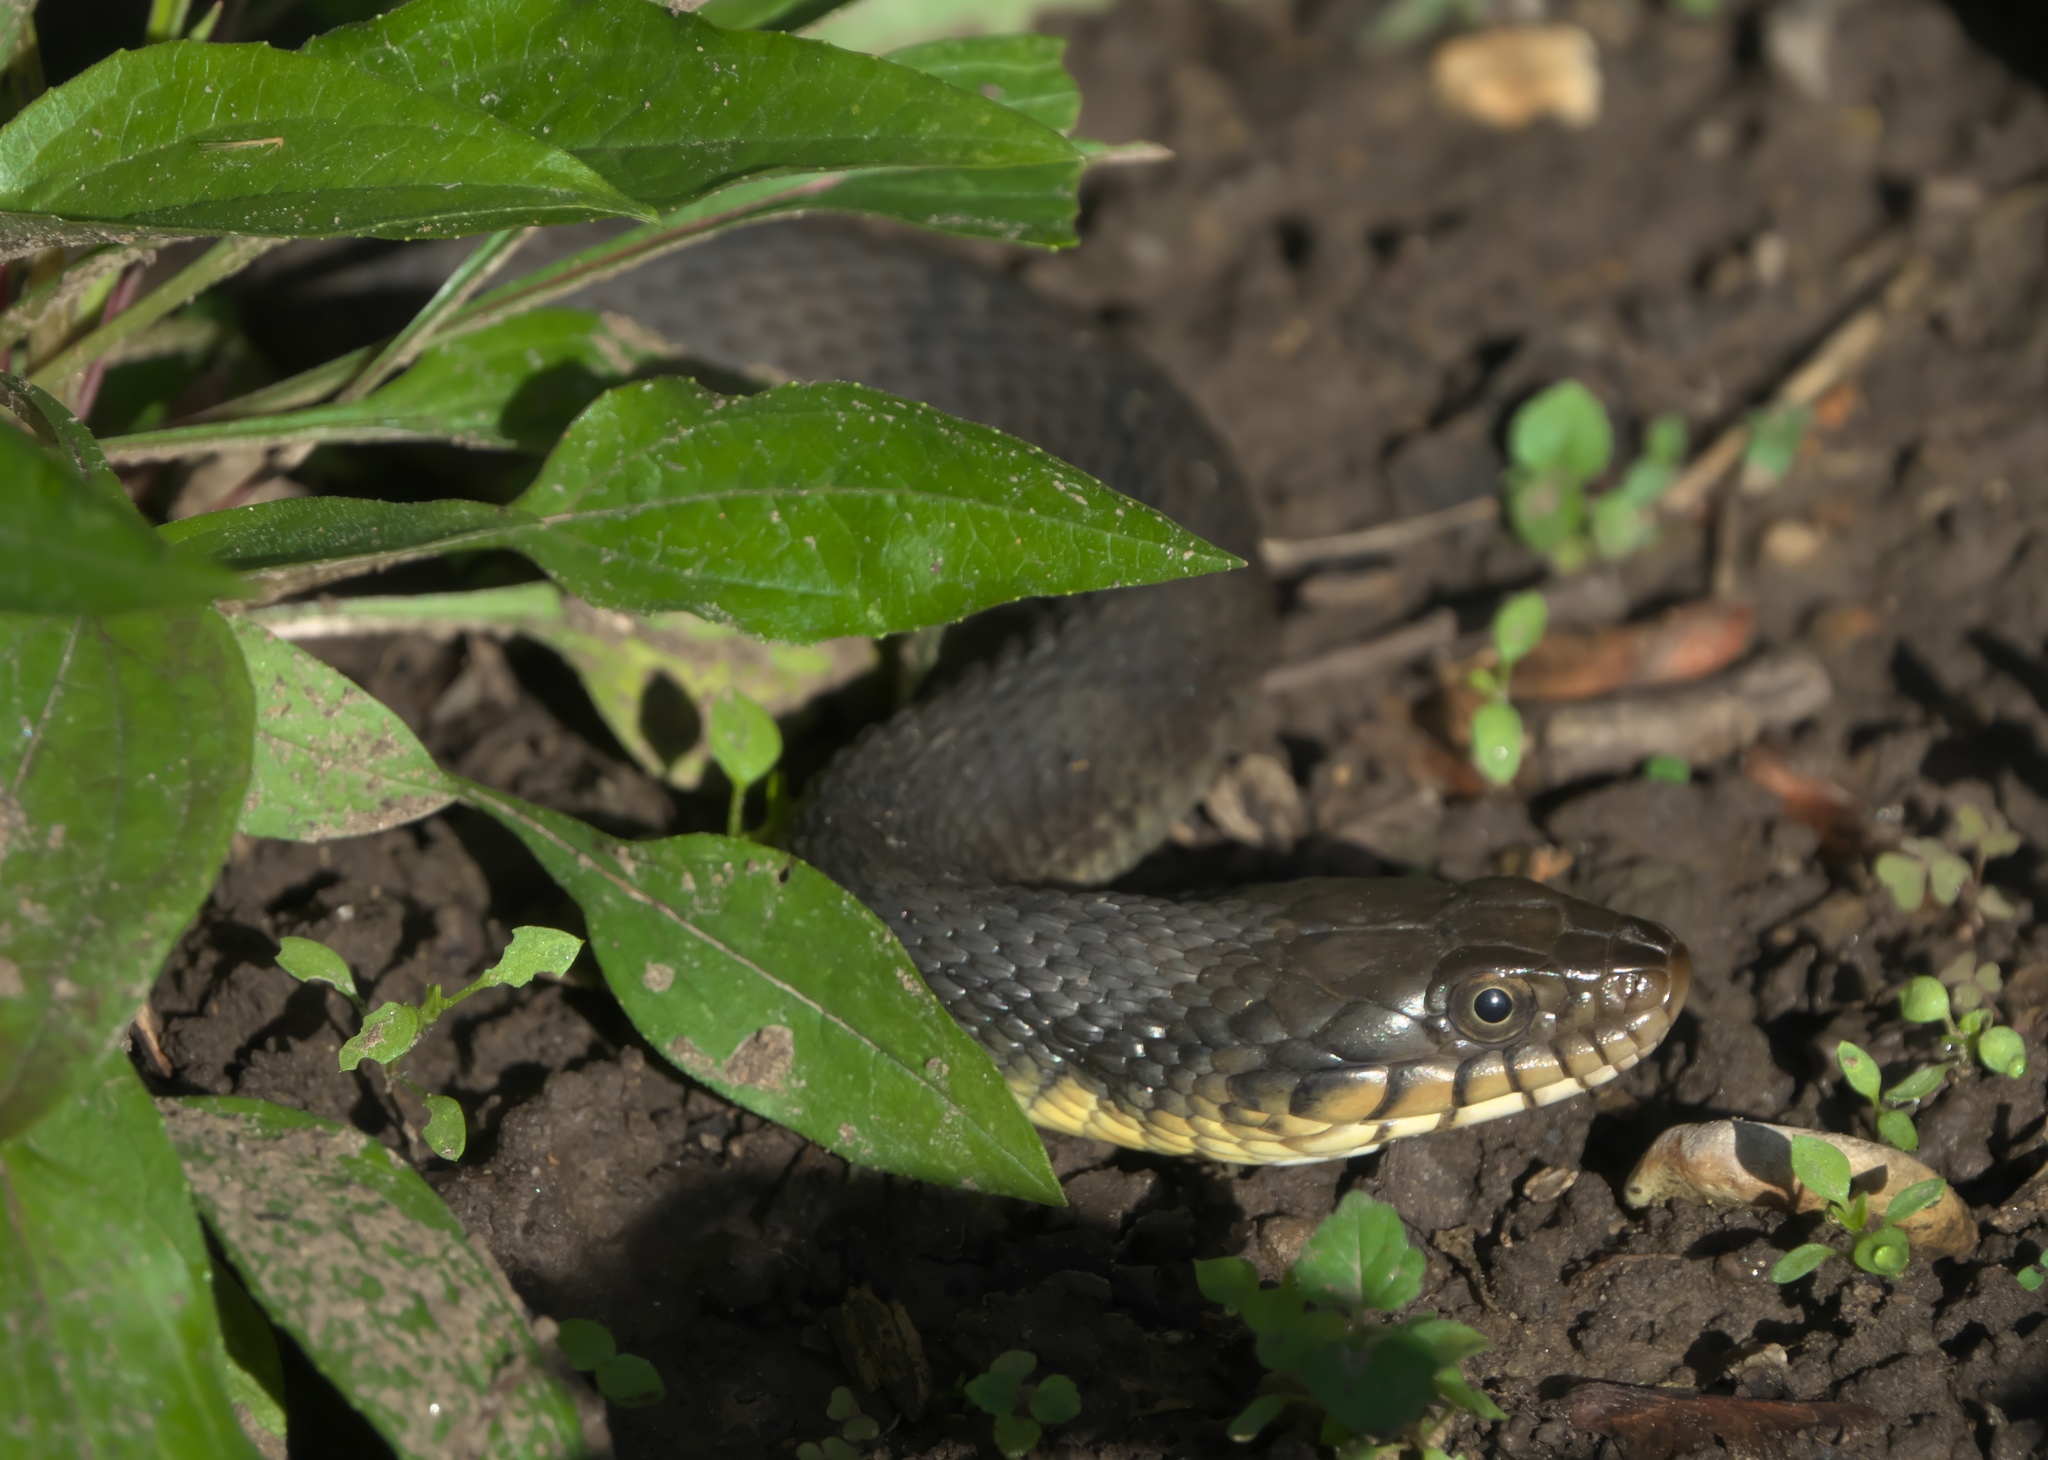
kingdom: Animalia
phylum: Chordata
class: Squamata
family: Colubridae
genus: Nerodia
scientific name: Nerodia erythrogaster
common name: Plainbelly water snake
